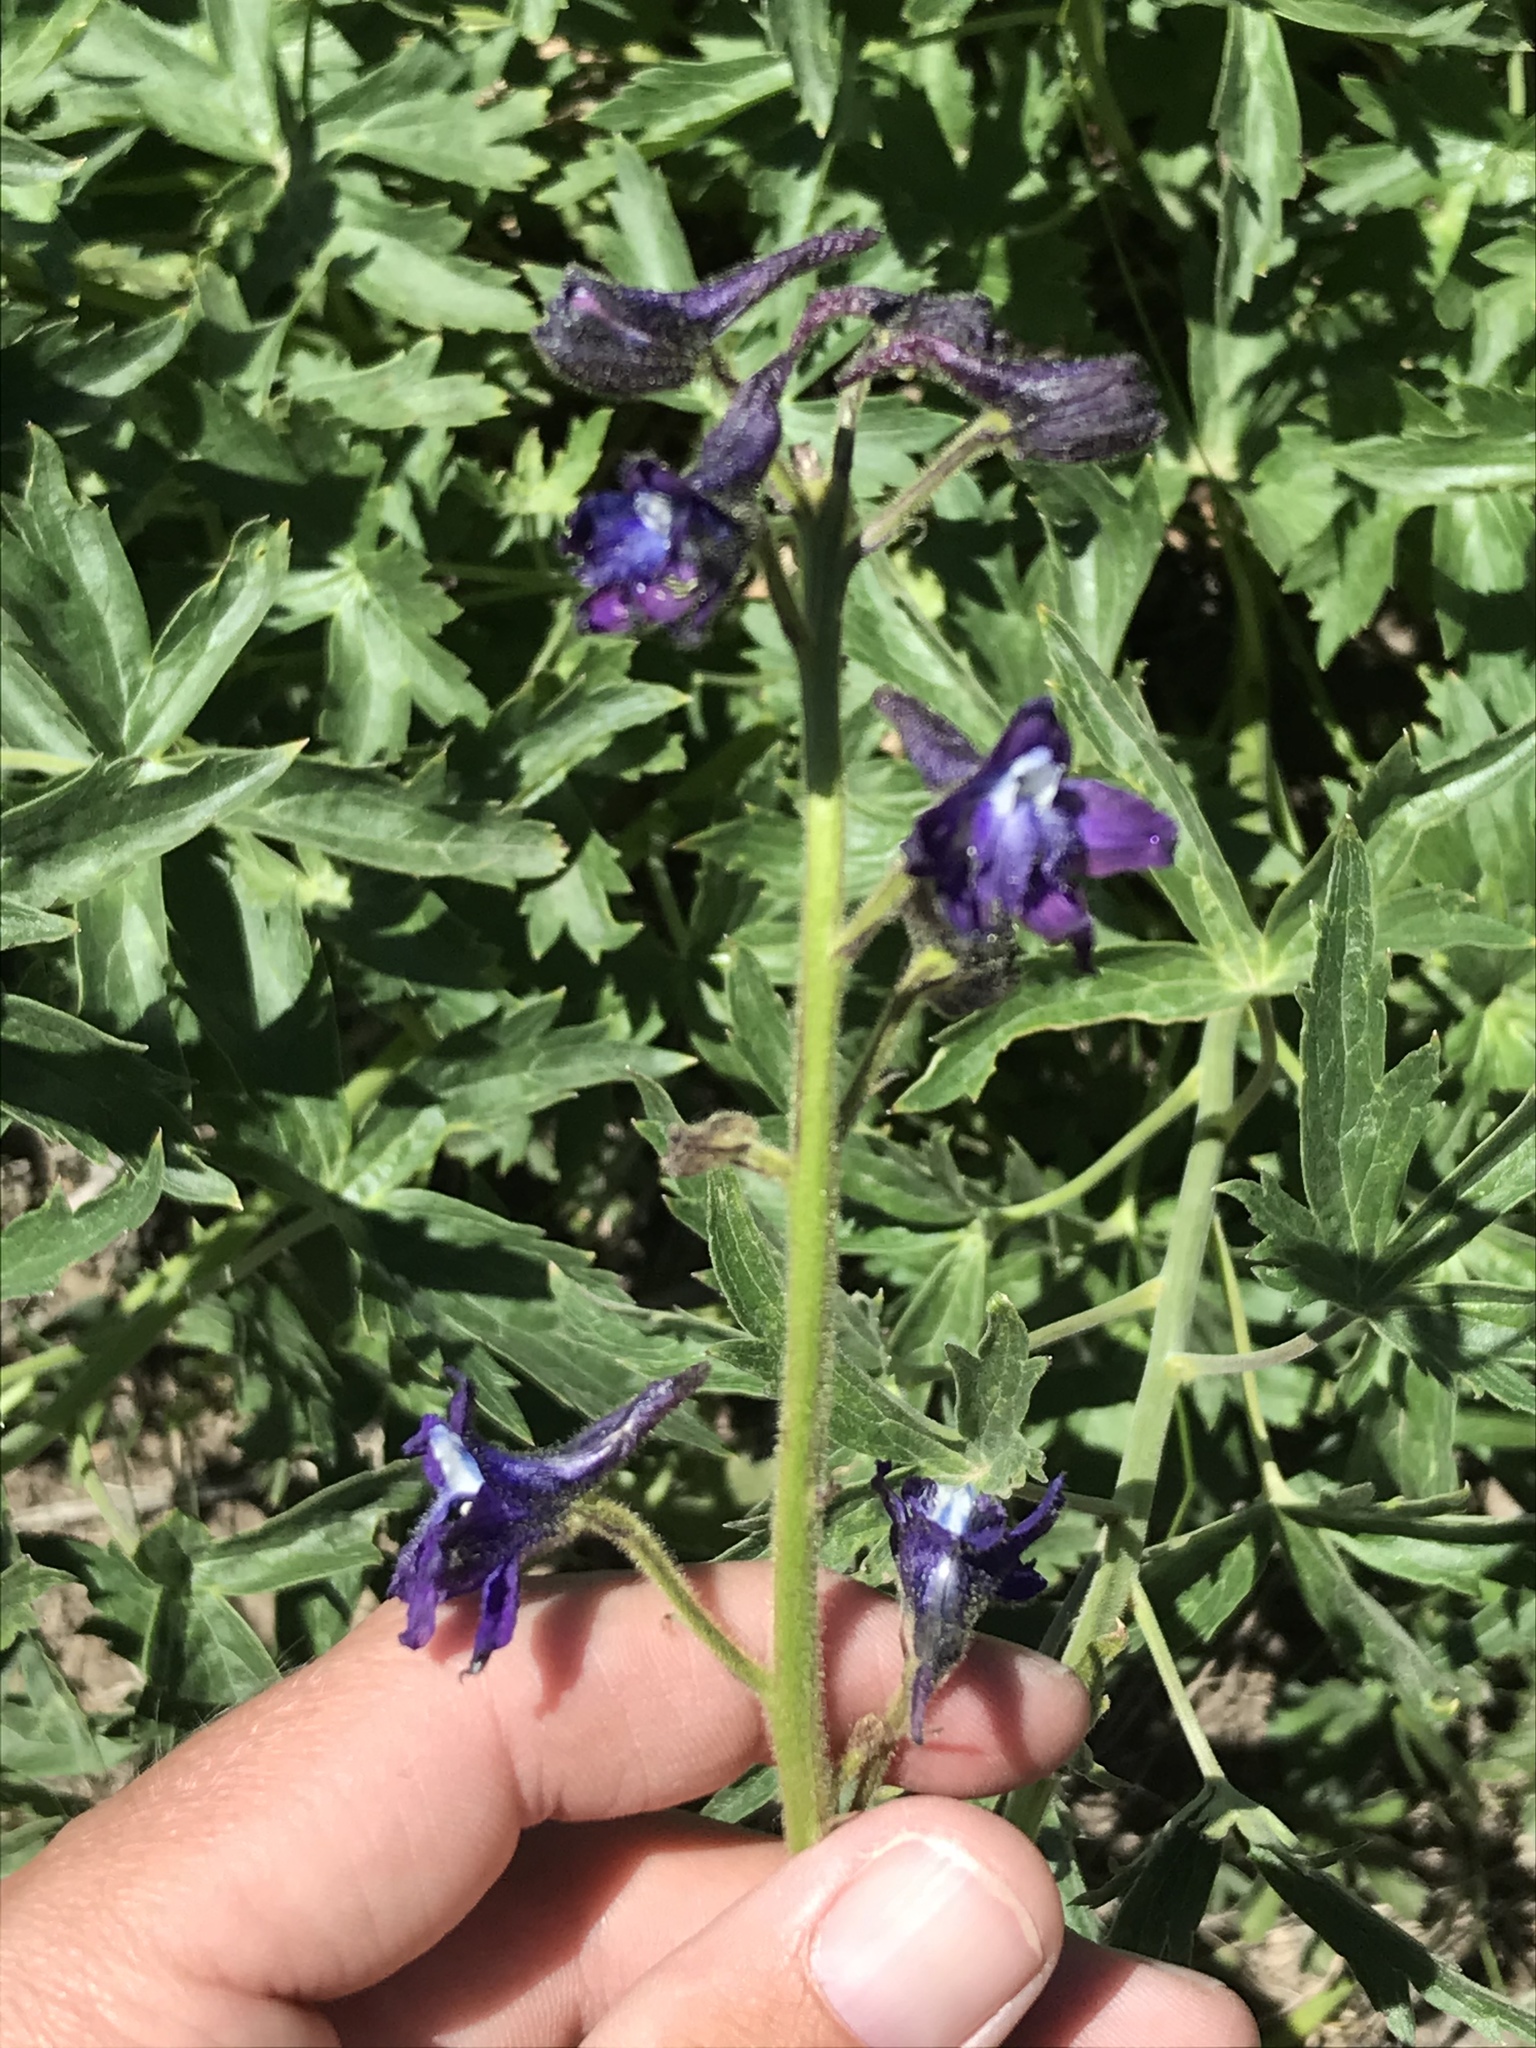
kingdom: Plantae
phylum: Tracheophyta
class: Magnoliopsida
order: Ranunculales
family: Ranunculaceae
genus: Delphinium
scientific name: Delphinium barbeyi
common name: Subalpine larkspur
